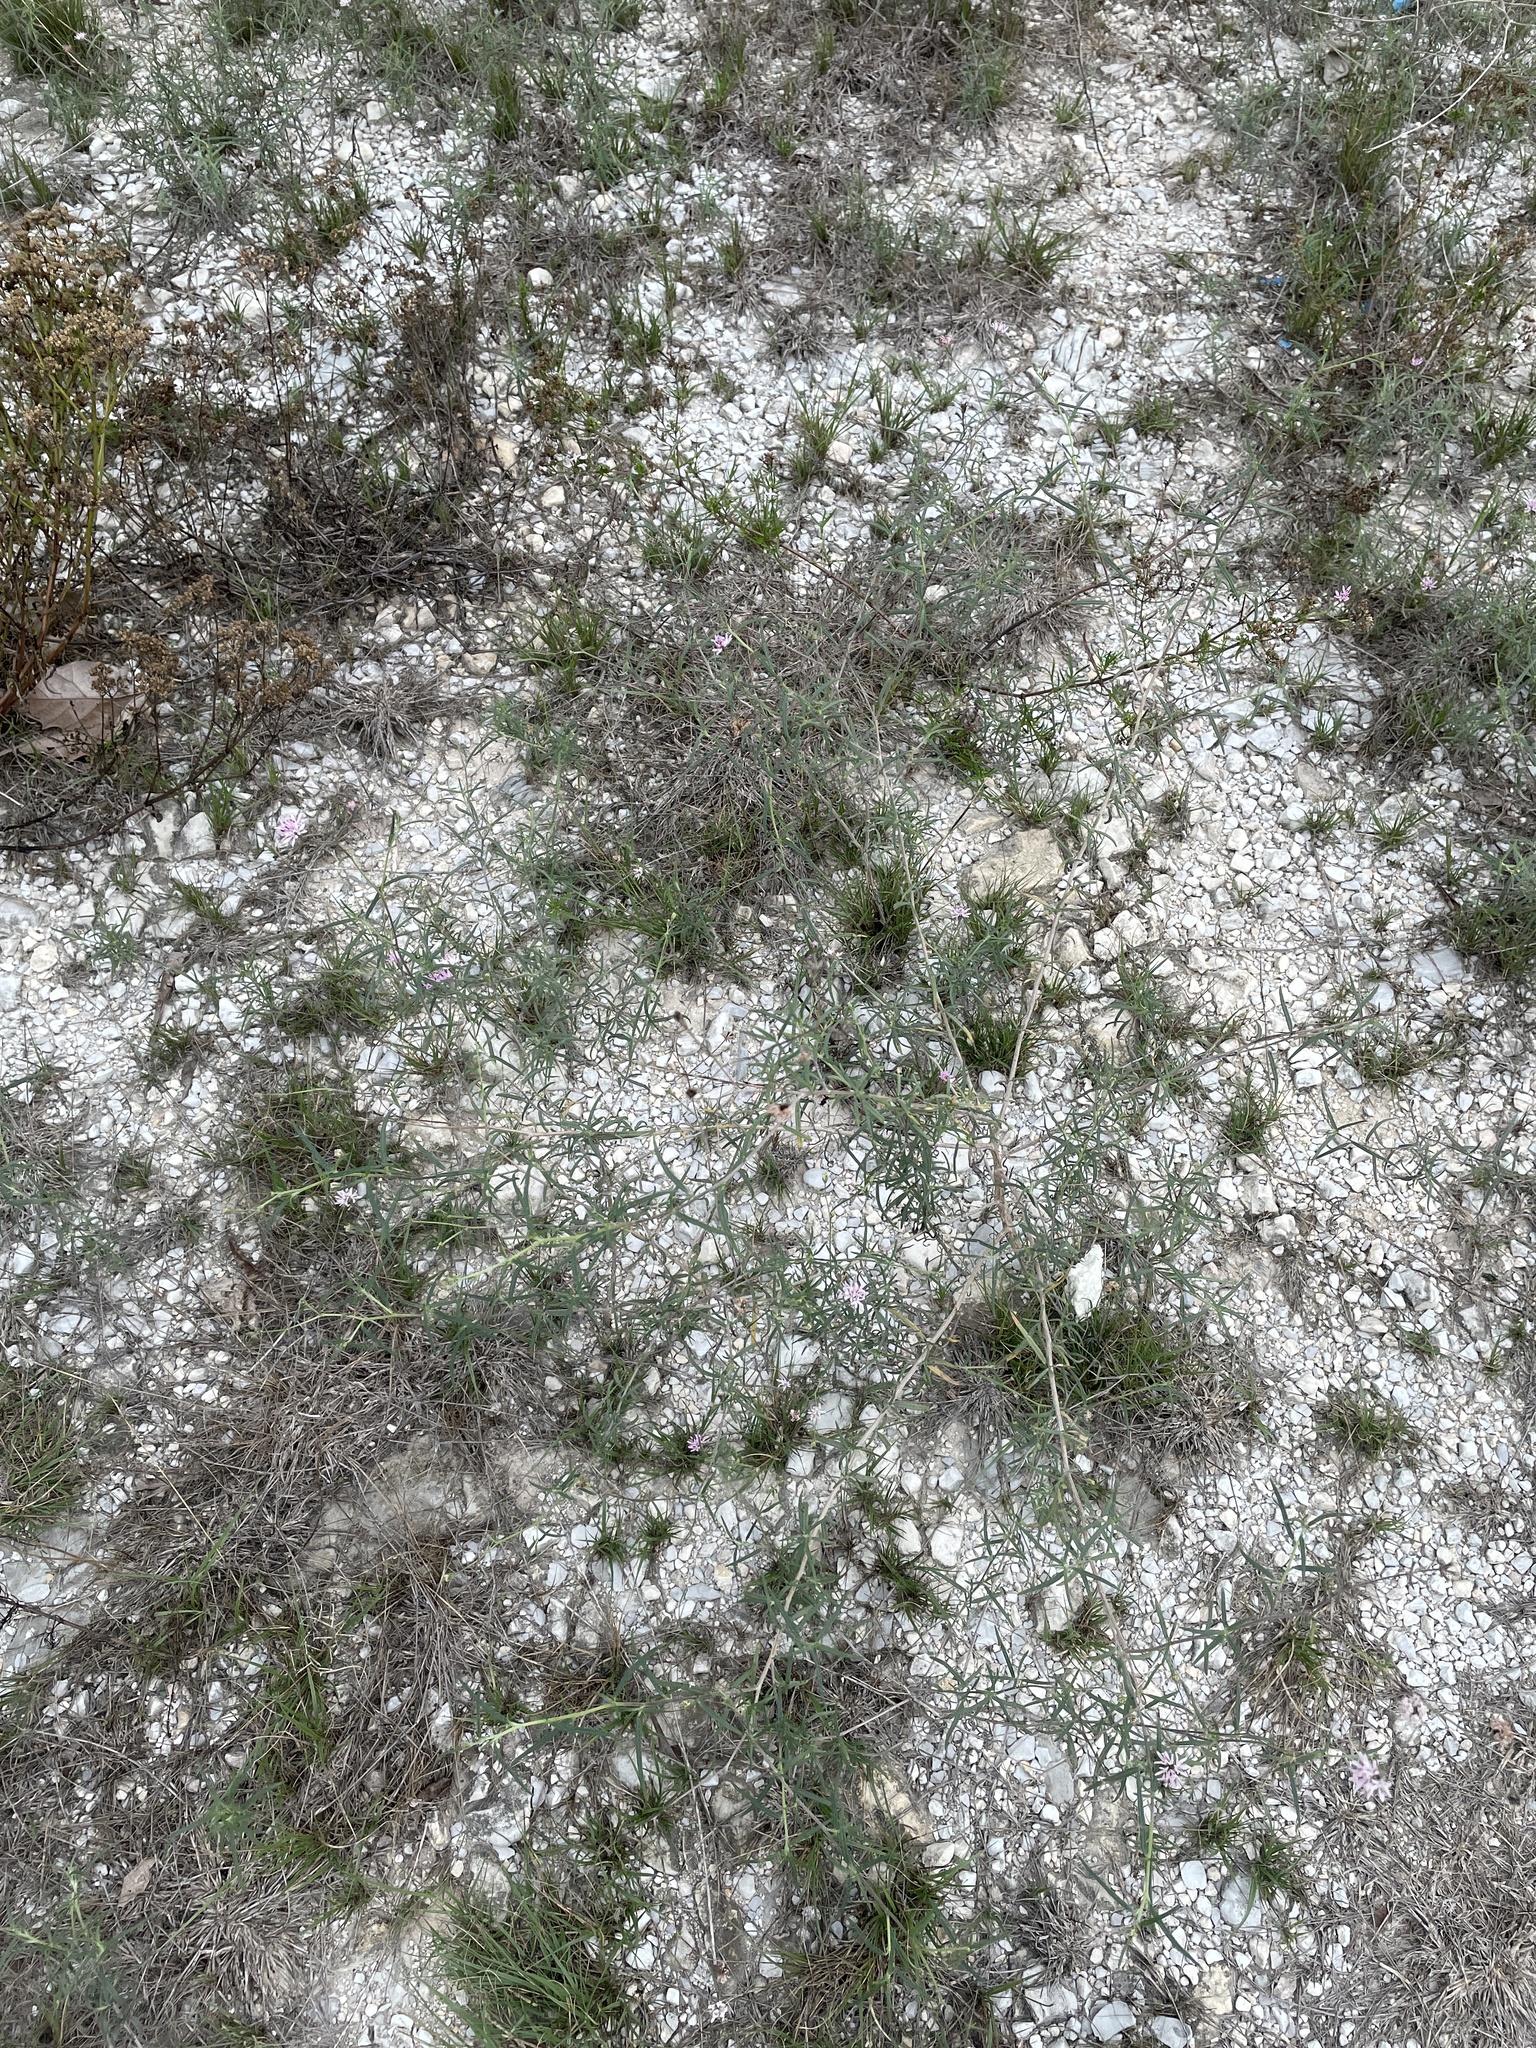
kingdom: Plantae
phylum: Tracheophyta
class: Magnoliopsida
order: Asterales
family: Asteraceae
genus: Palafoxia
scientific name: Palafoxia callosa
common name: Small palafox
